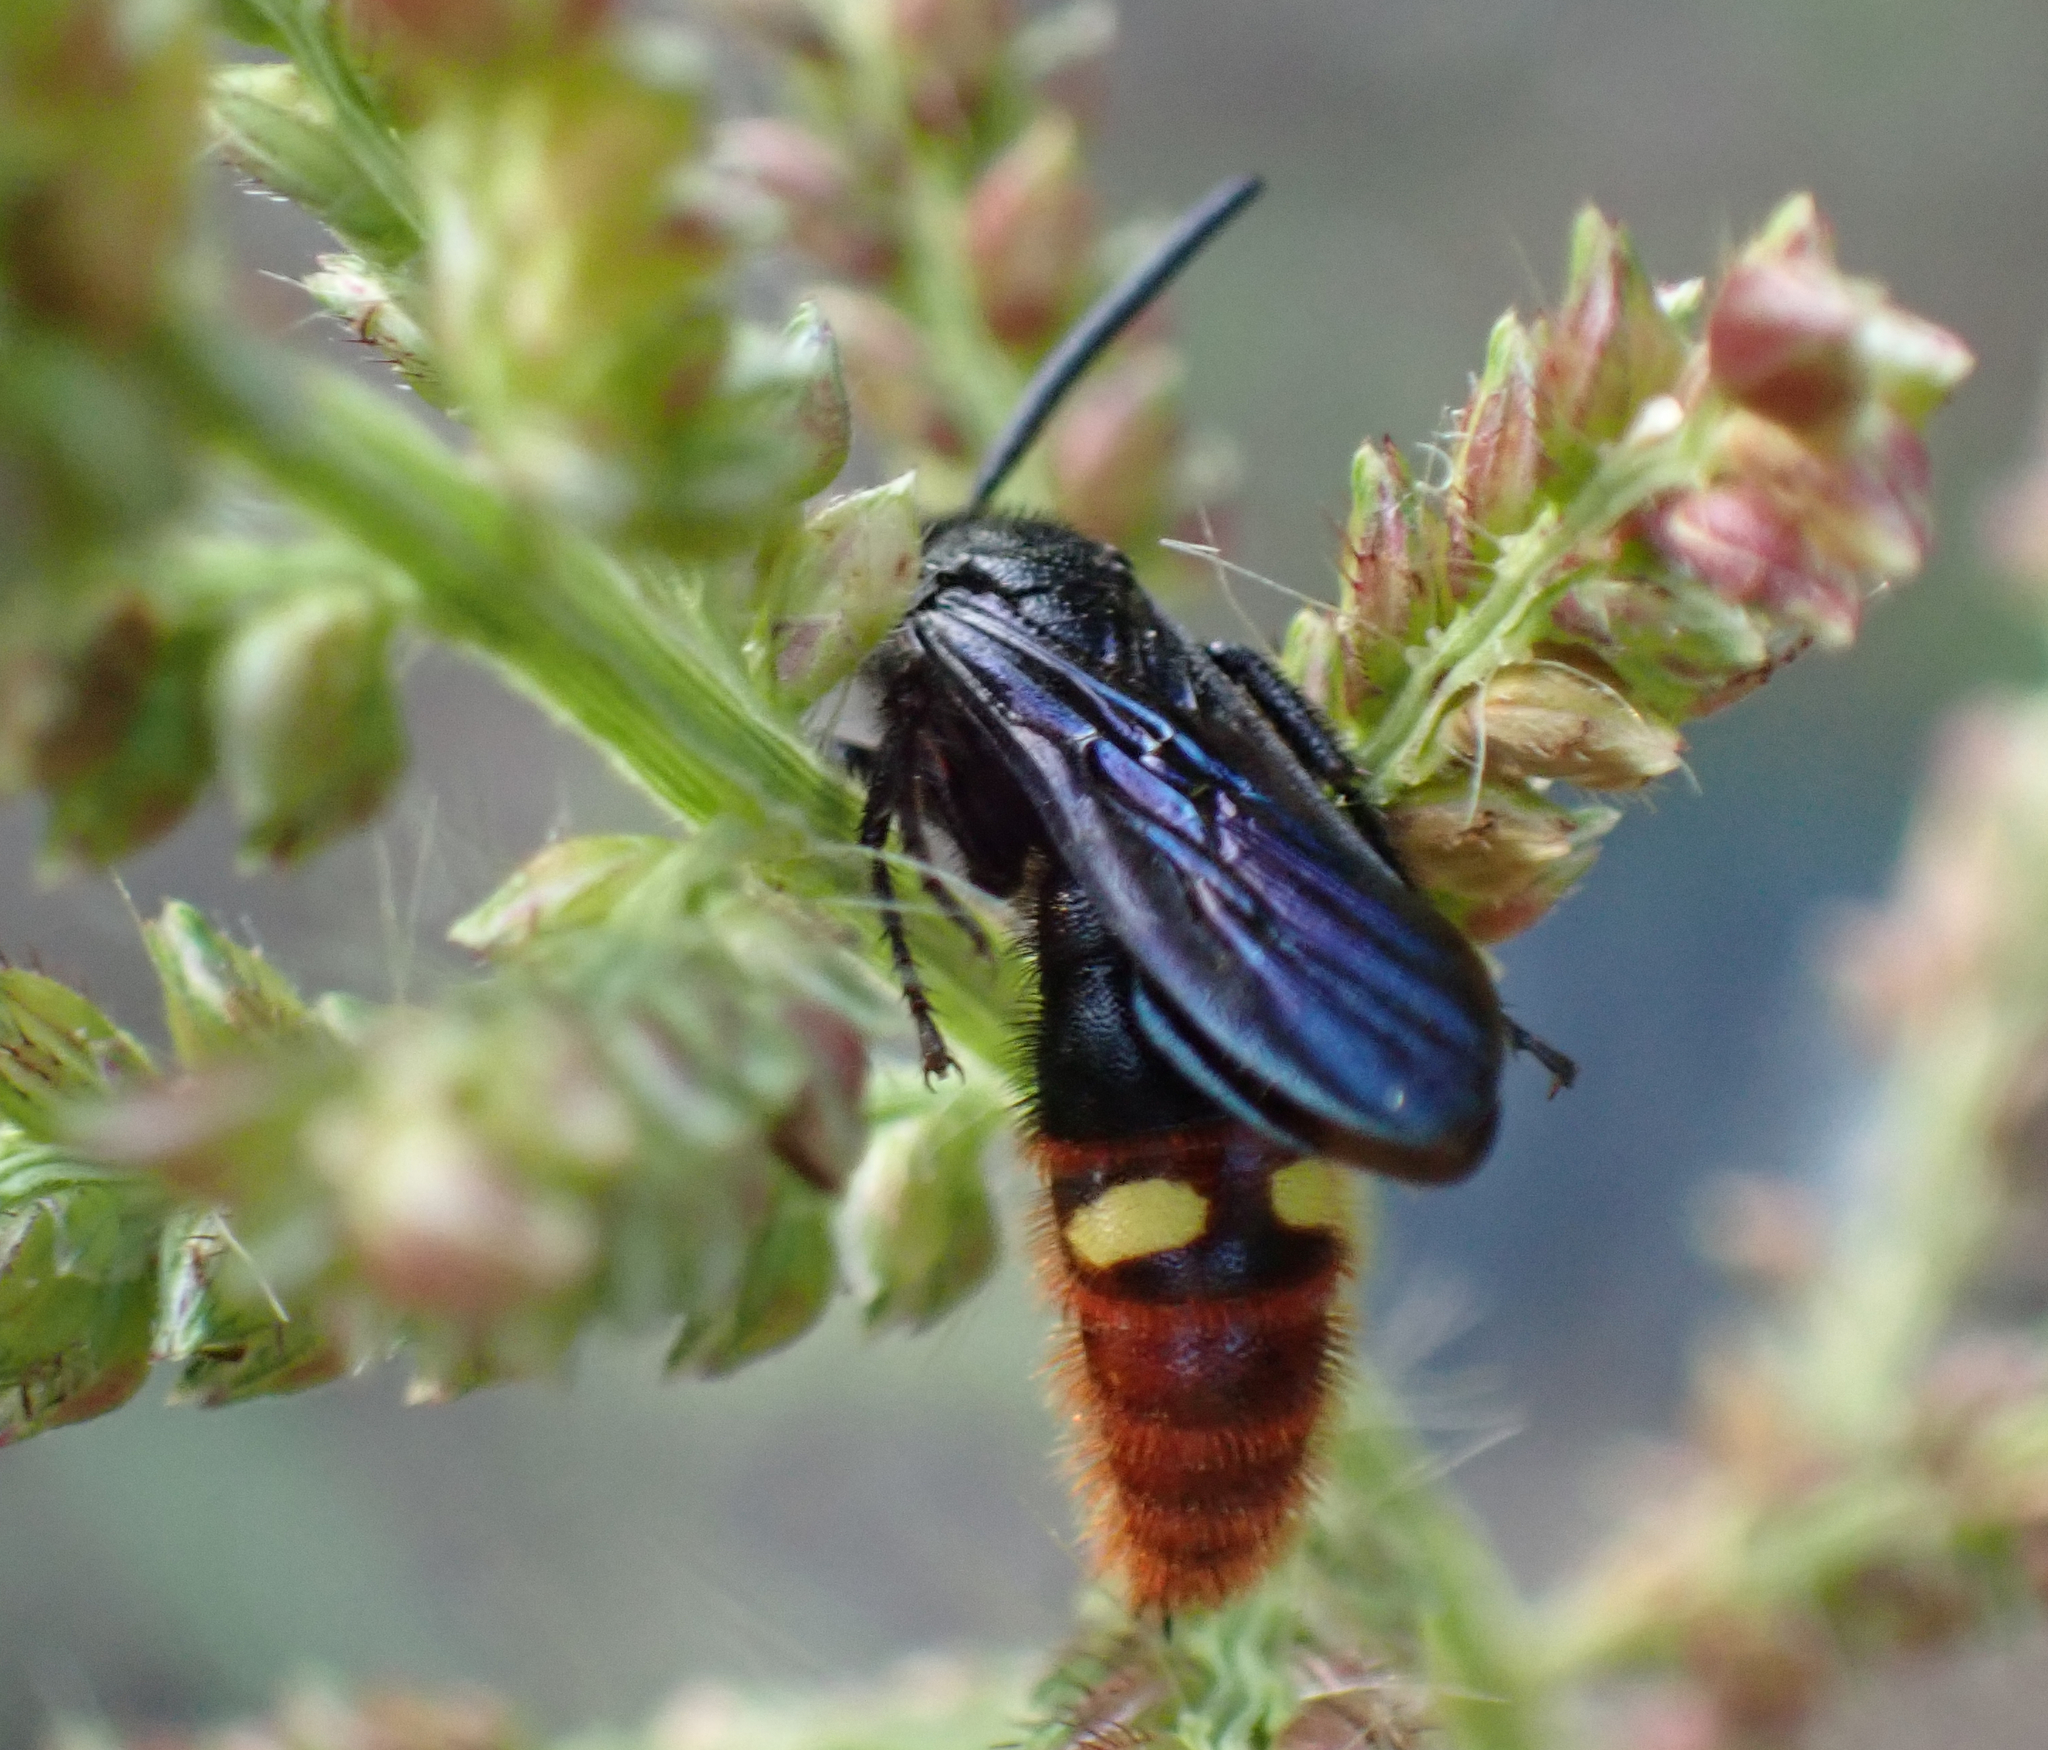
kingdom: Animalia
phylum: Arthropoda
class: Insecta
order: Hymenoptera
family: Scoliidae
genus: Scolia
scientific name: Scolia dubia
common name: Blue-winged scoliid wasp
